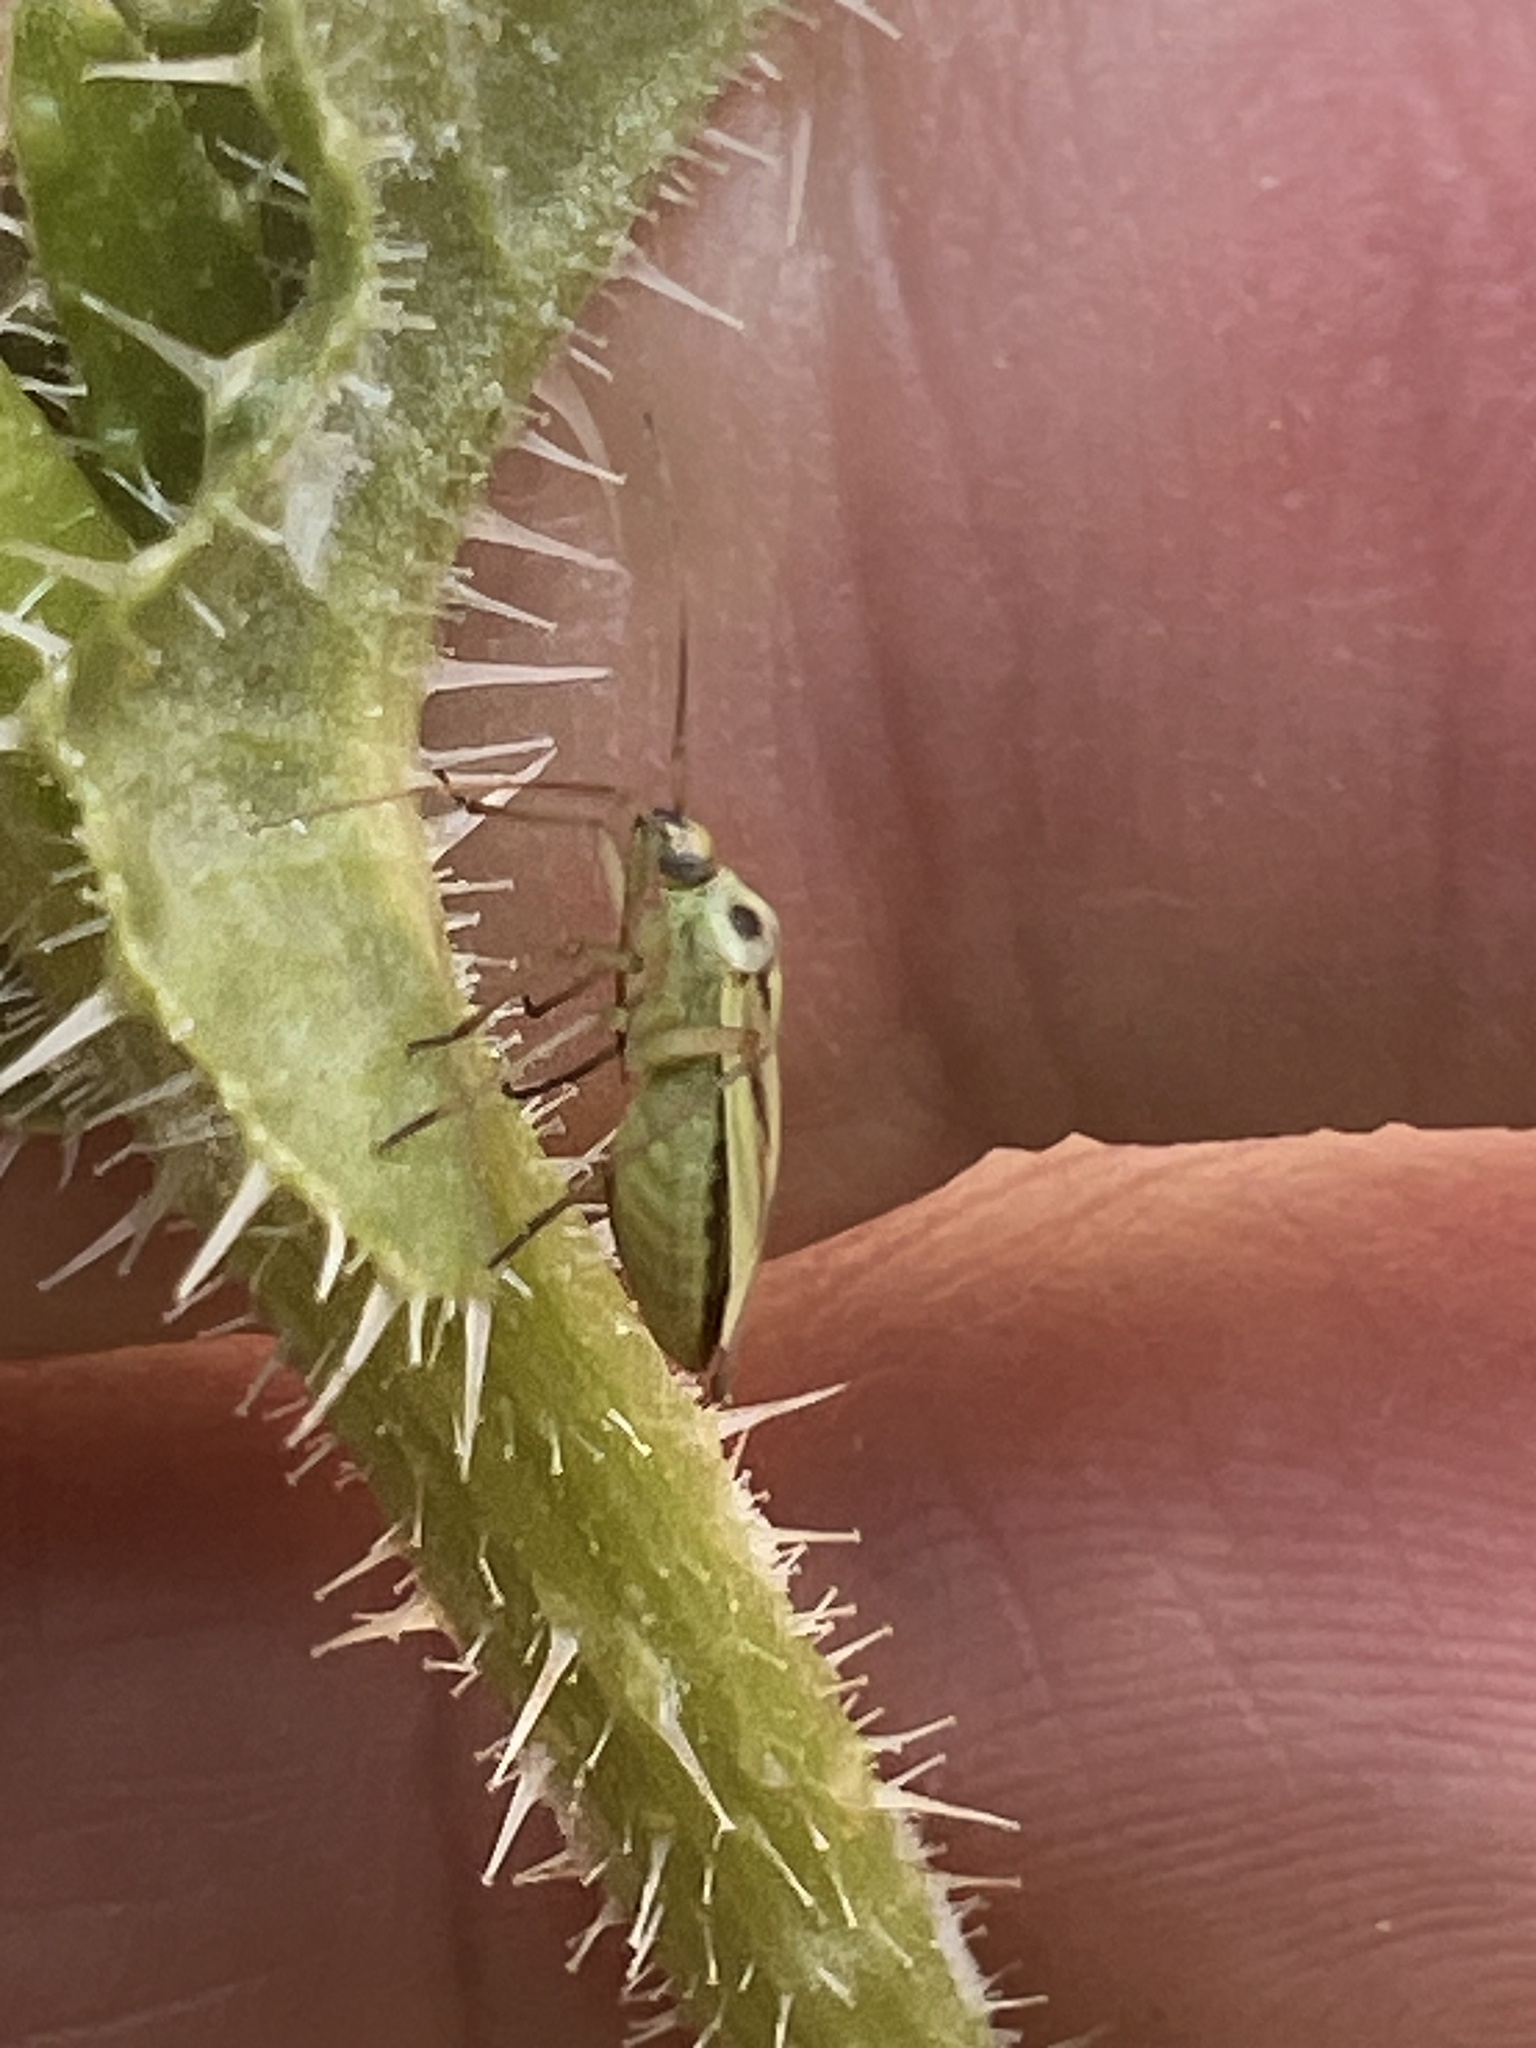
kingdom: Animalia
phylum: Arthropoda
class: Insecta
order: Hemiptera
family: Miridae
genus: Stenotus
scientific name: Stenotus binotatus
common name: Plant bug
